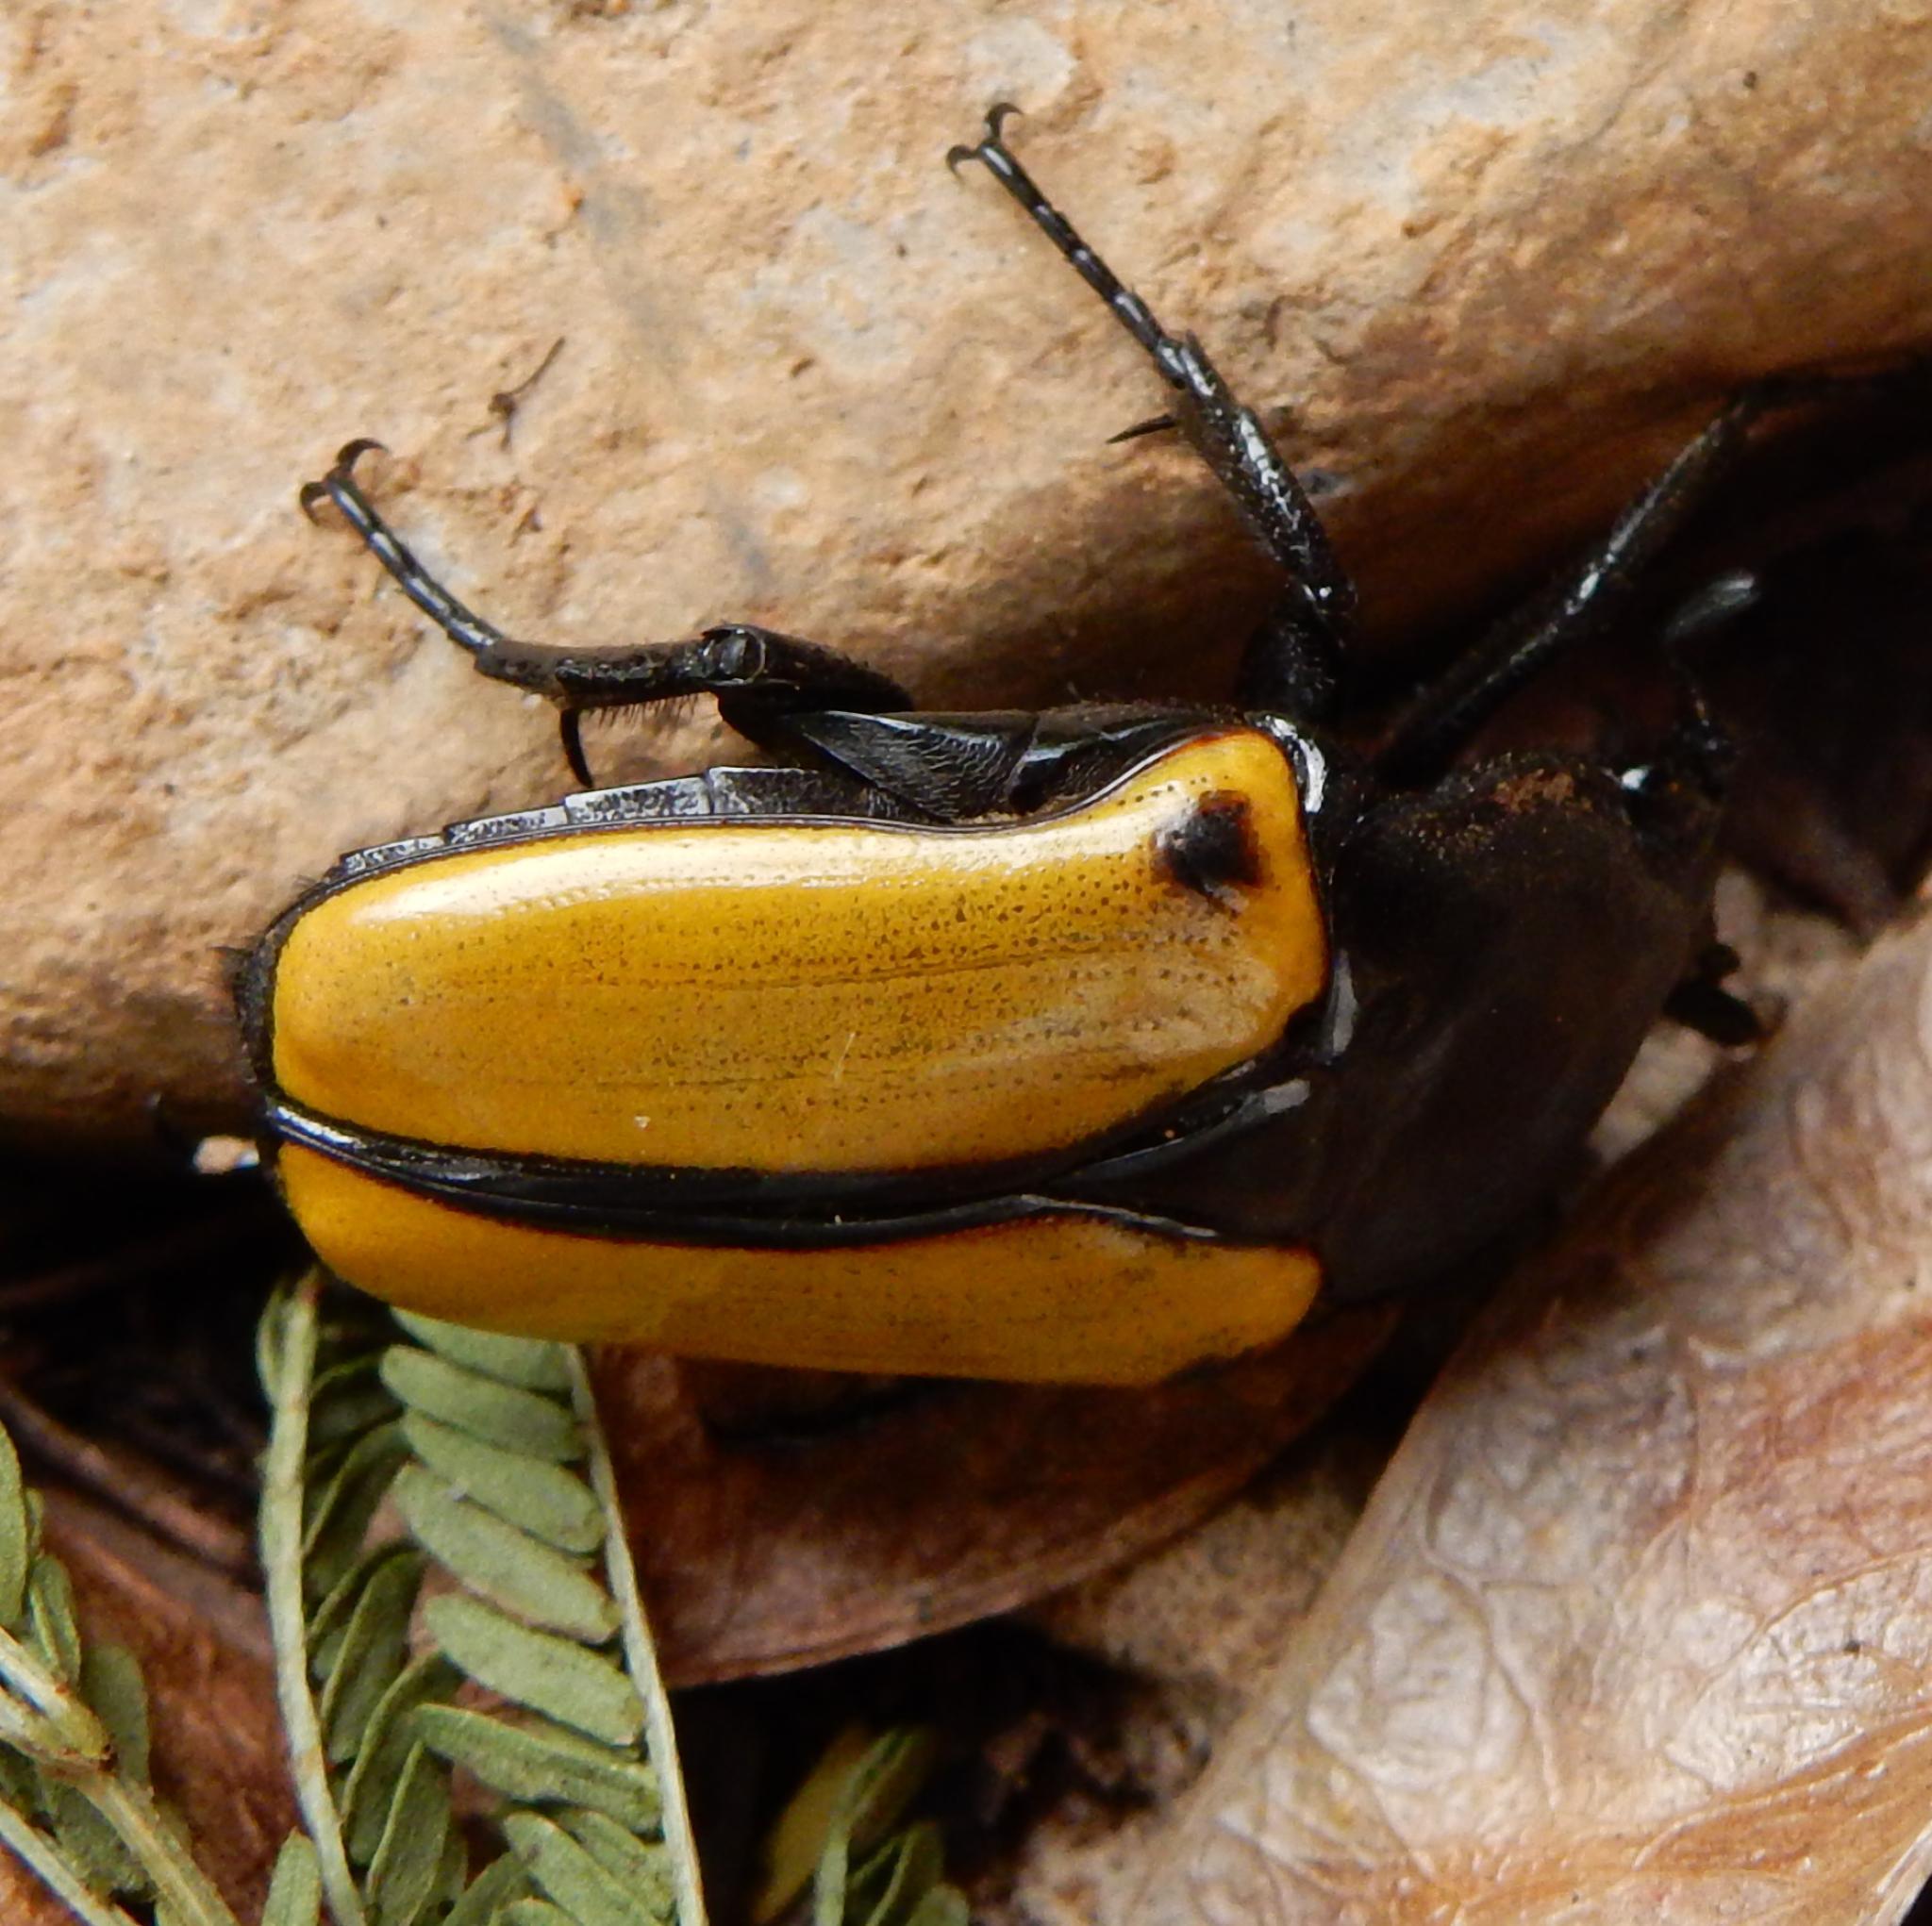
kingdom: Animalia
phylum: Arthropoda
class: Insecta
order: Coleoptera
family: Scarabaeidae
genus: Anisorrhina
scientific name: Anisorrhina algoensis
